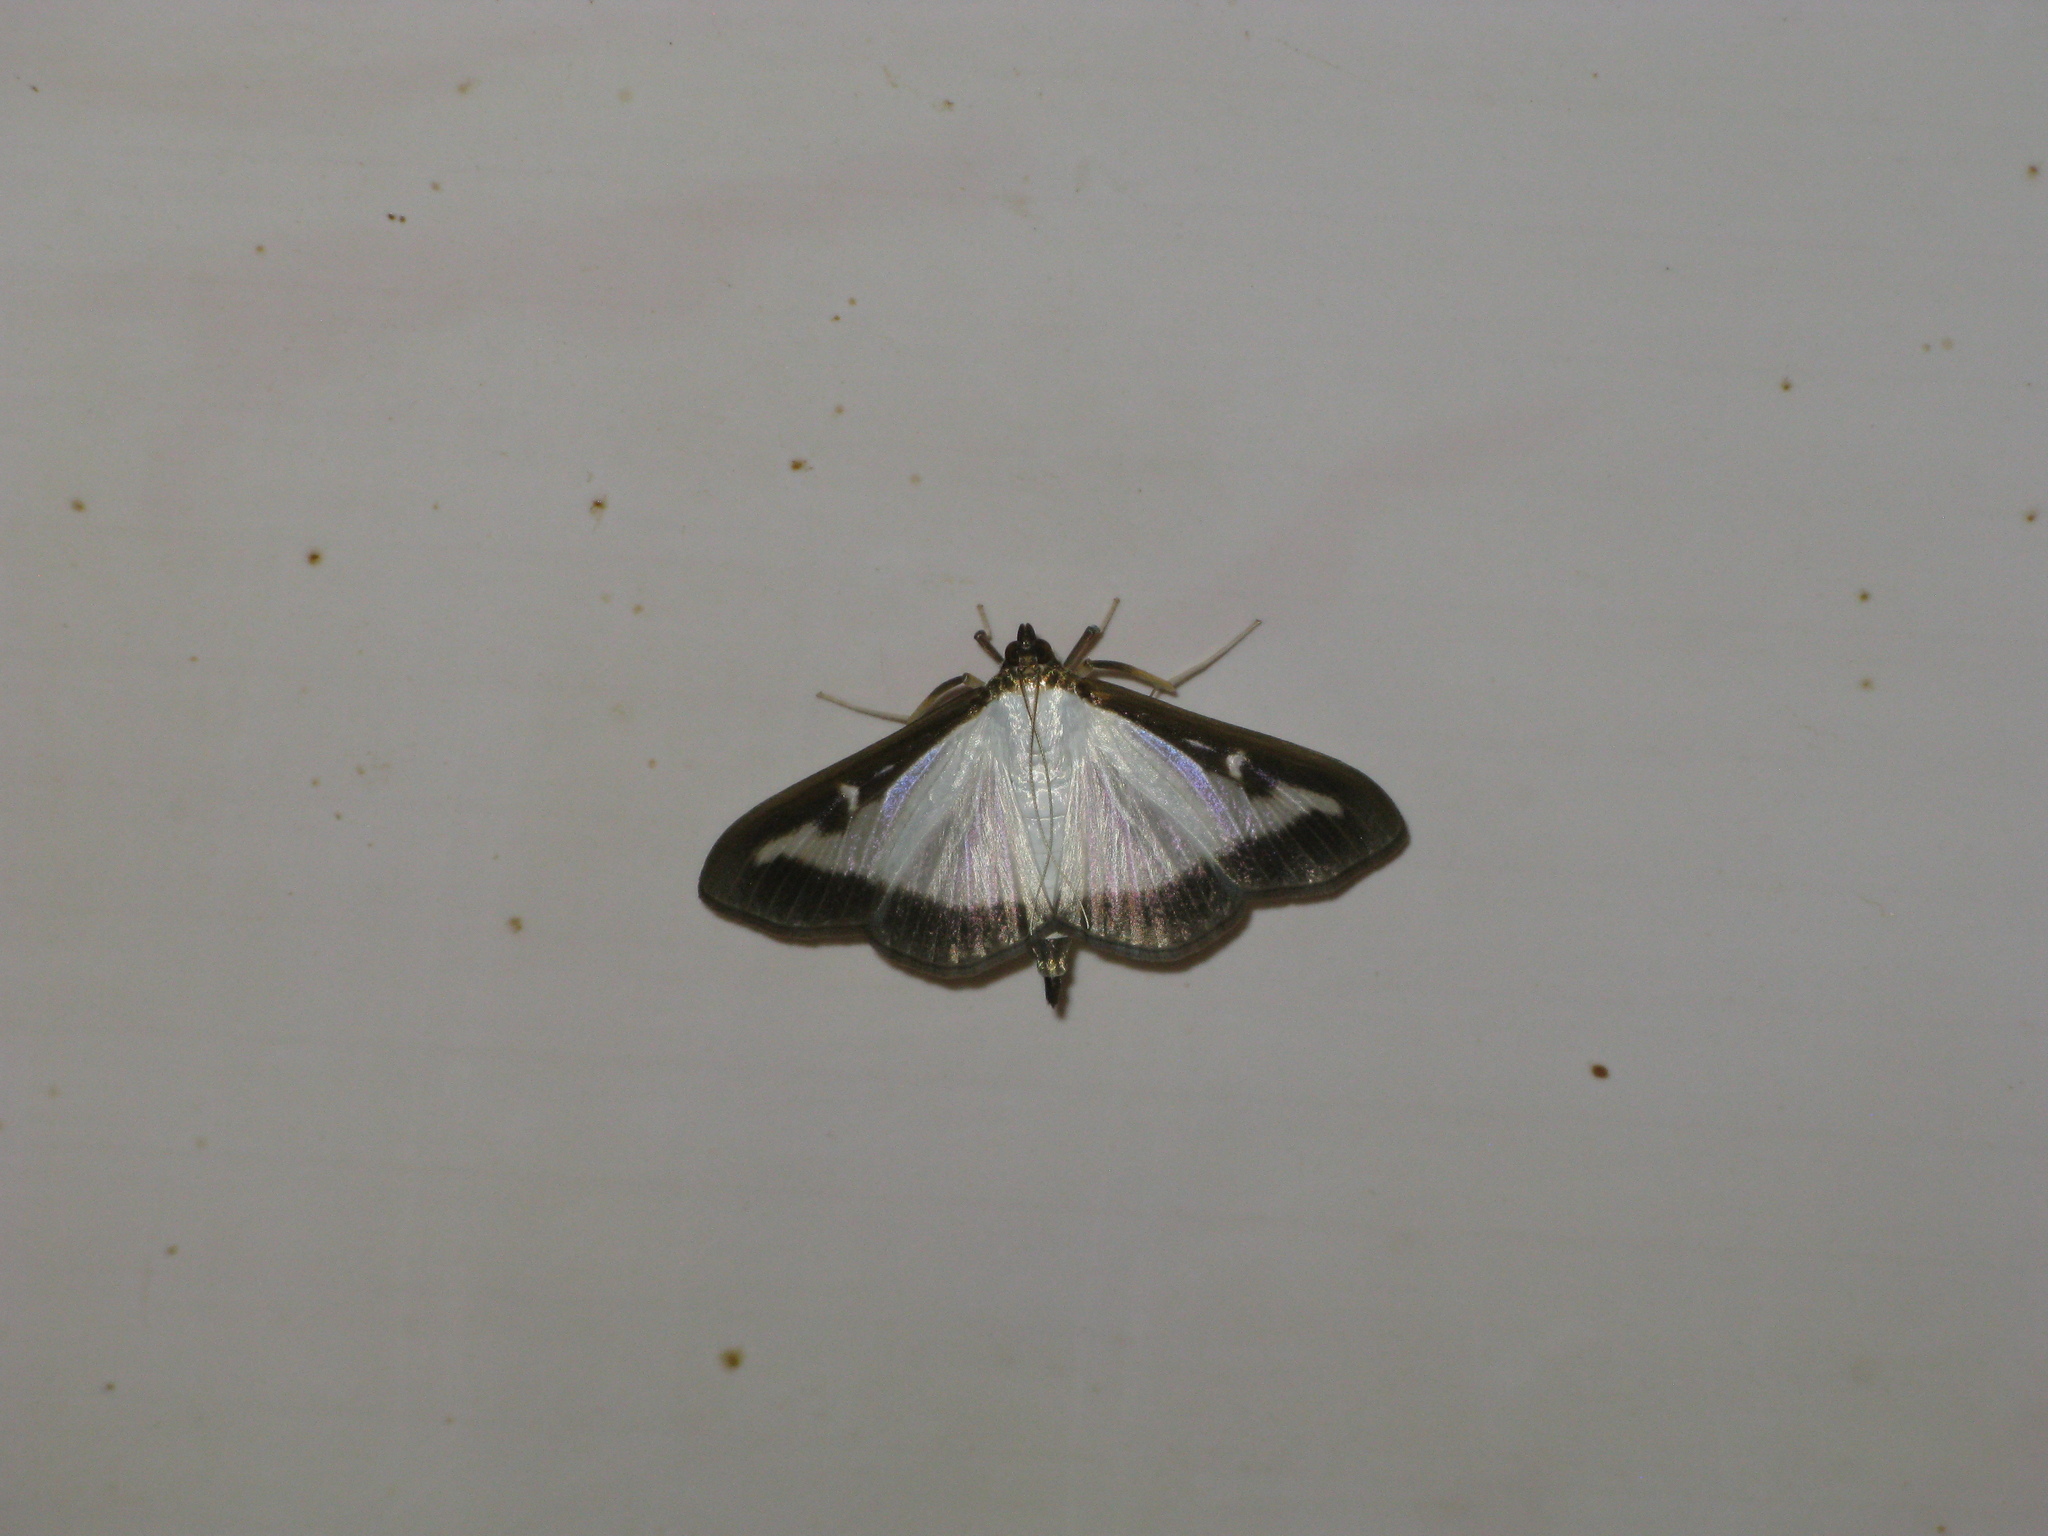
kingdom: Animalia
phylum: Arthropoda
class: Insecta
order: Lepidoptera
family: Crambidae
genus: Cydalima
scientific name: Cydalima perspectalis
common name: Box tree moth
